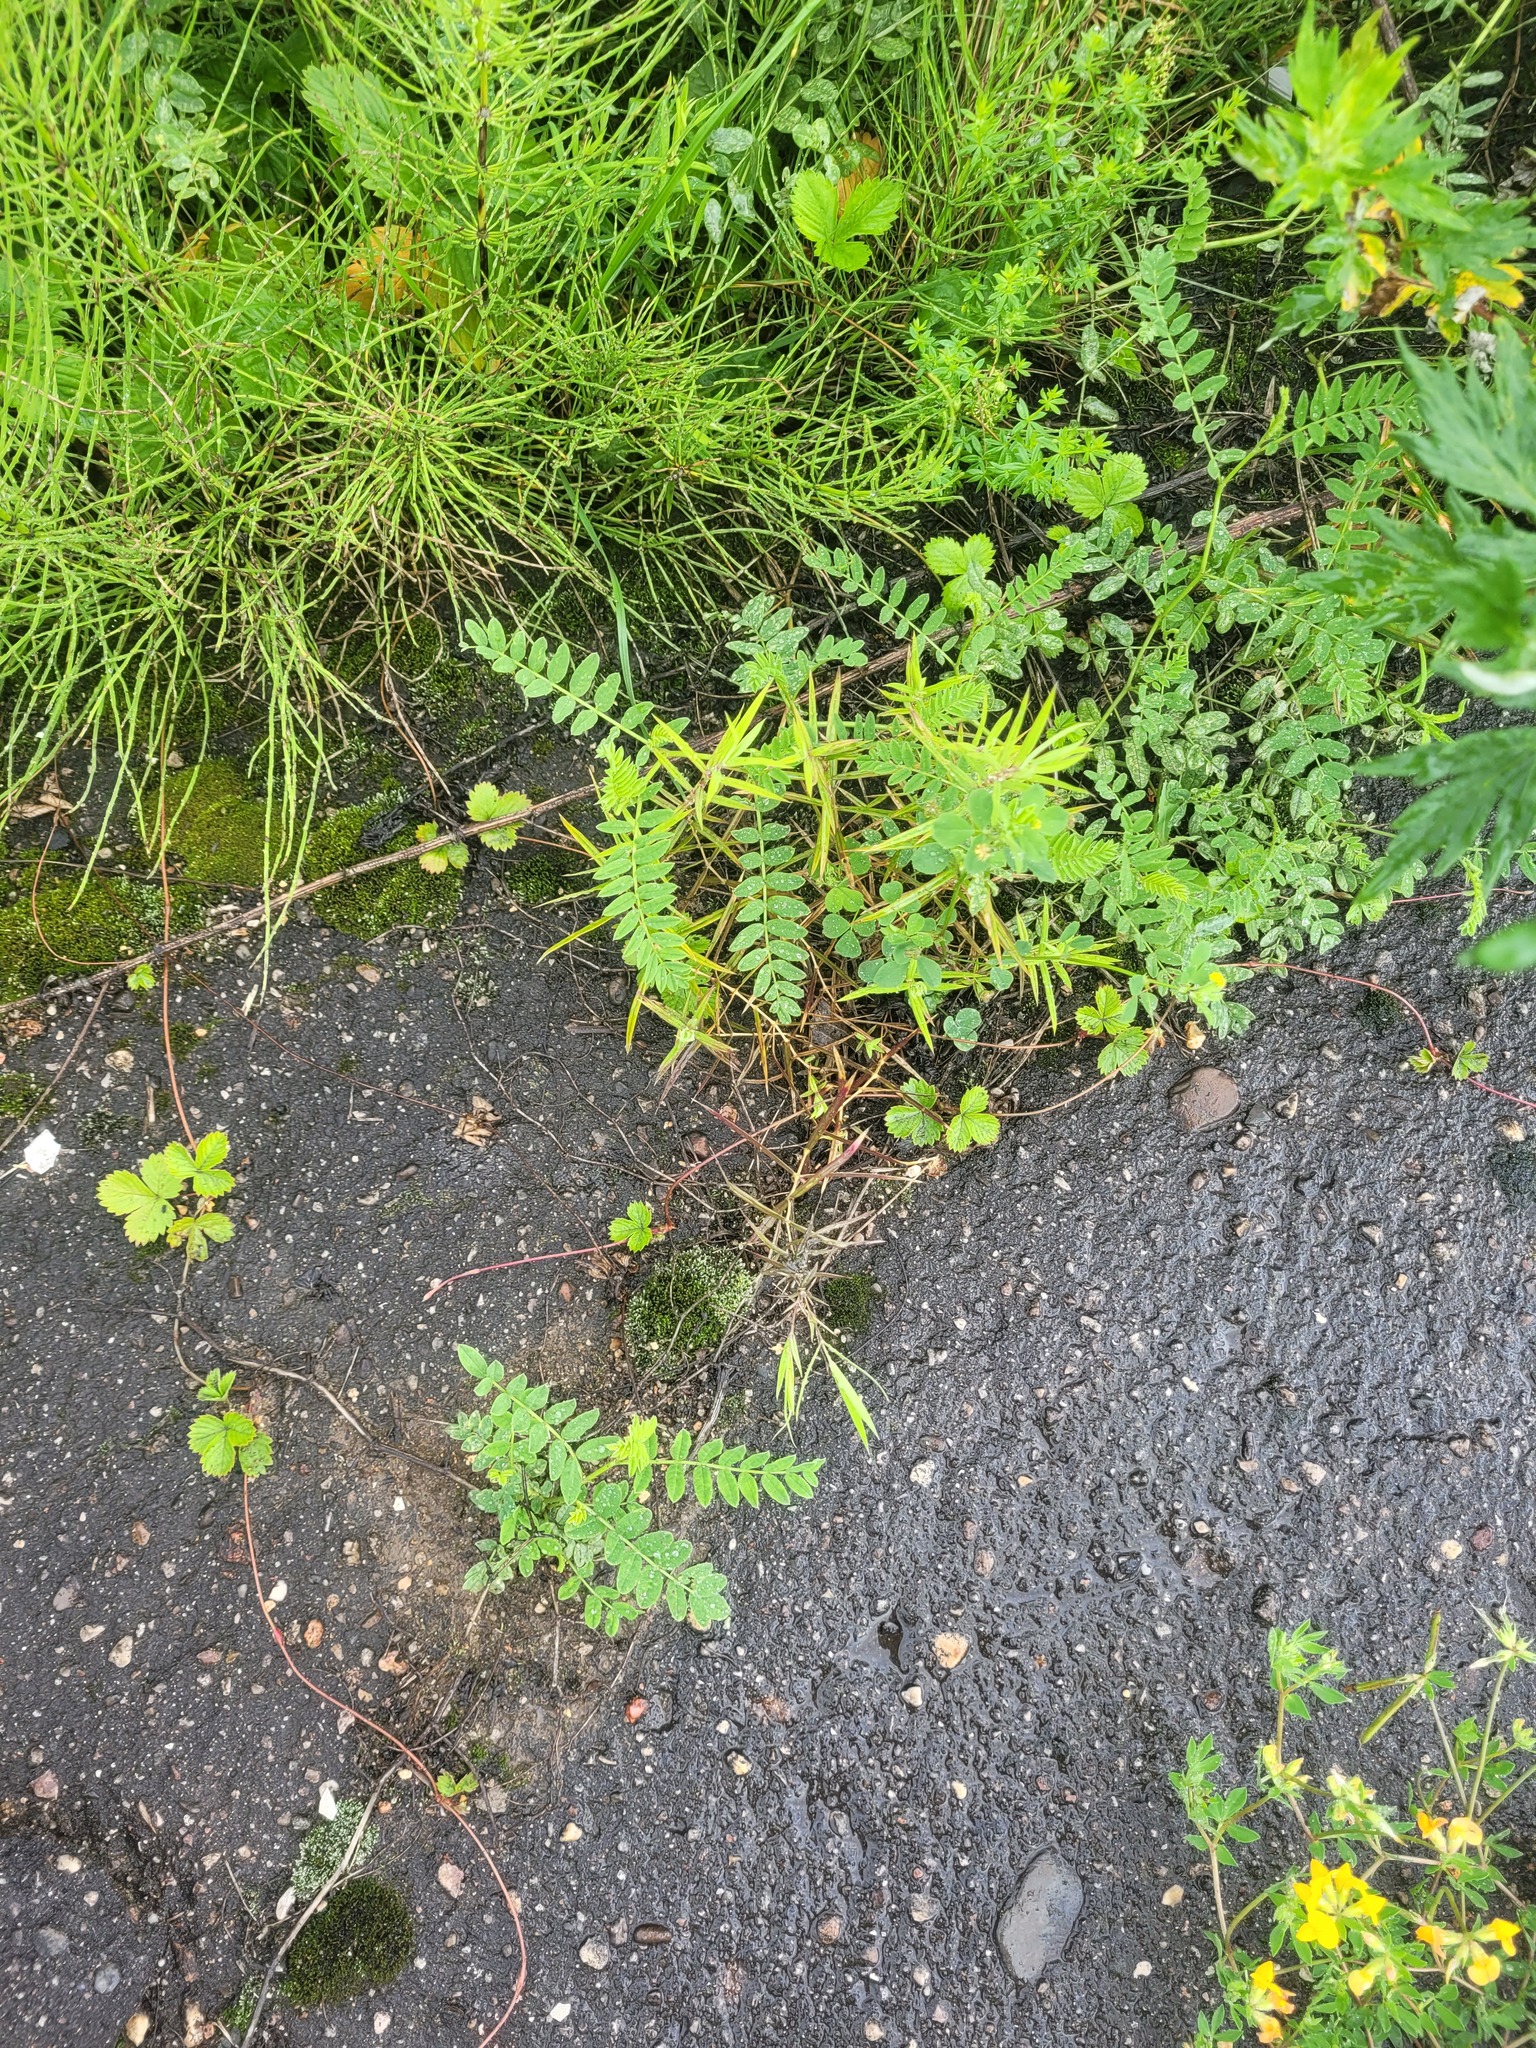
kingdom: Plantae
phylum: Tracheophyta
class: Magnoliopsida
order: Fabales
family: Fabaceae
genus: Astragalus
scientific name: Astragalus cicer
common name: Chick-pea milk-vetch
